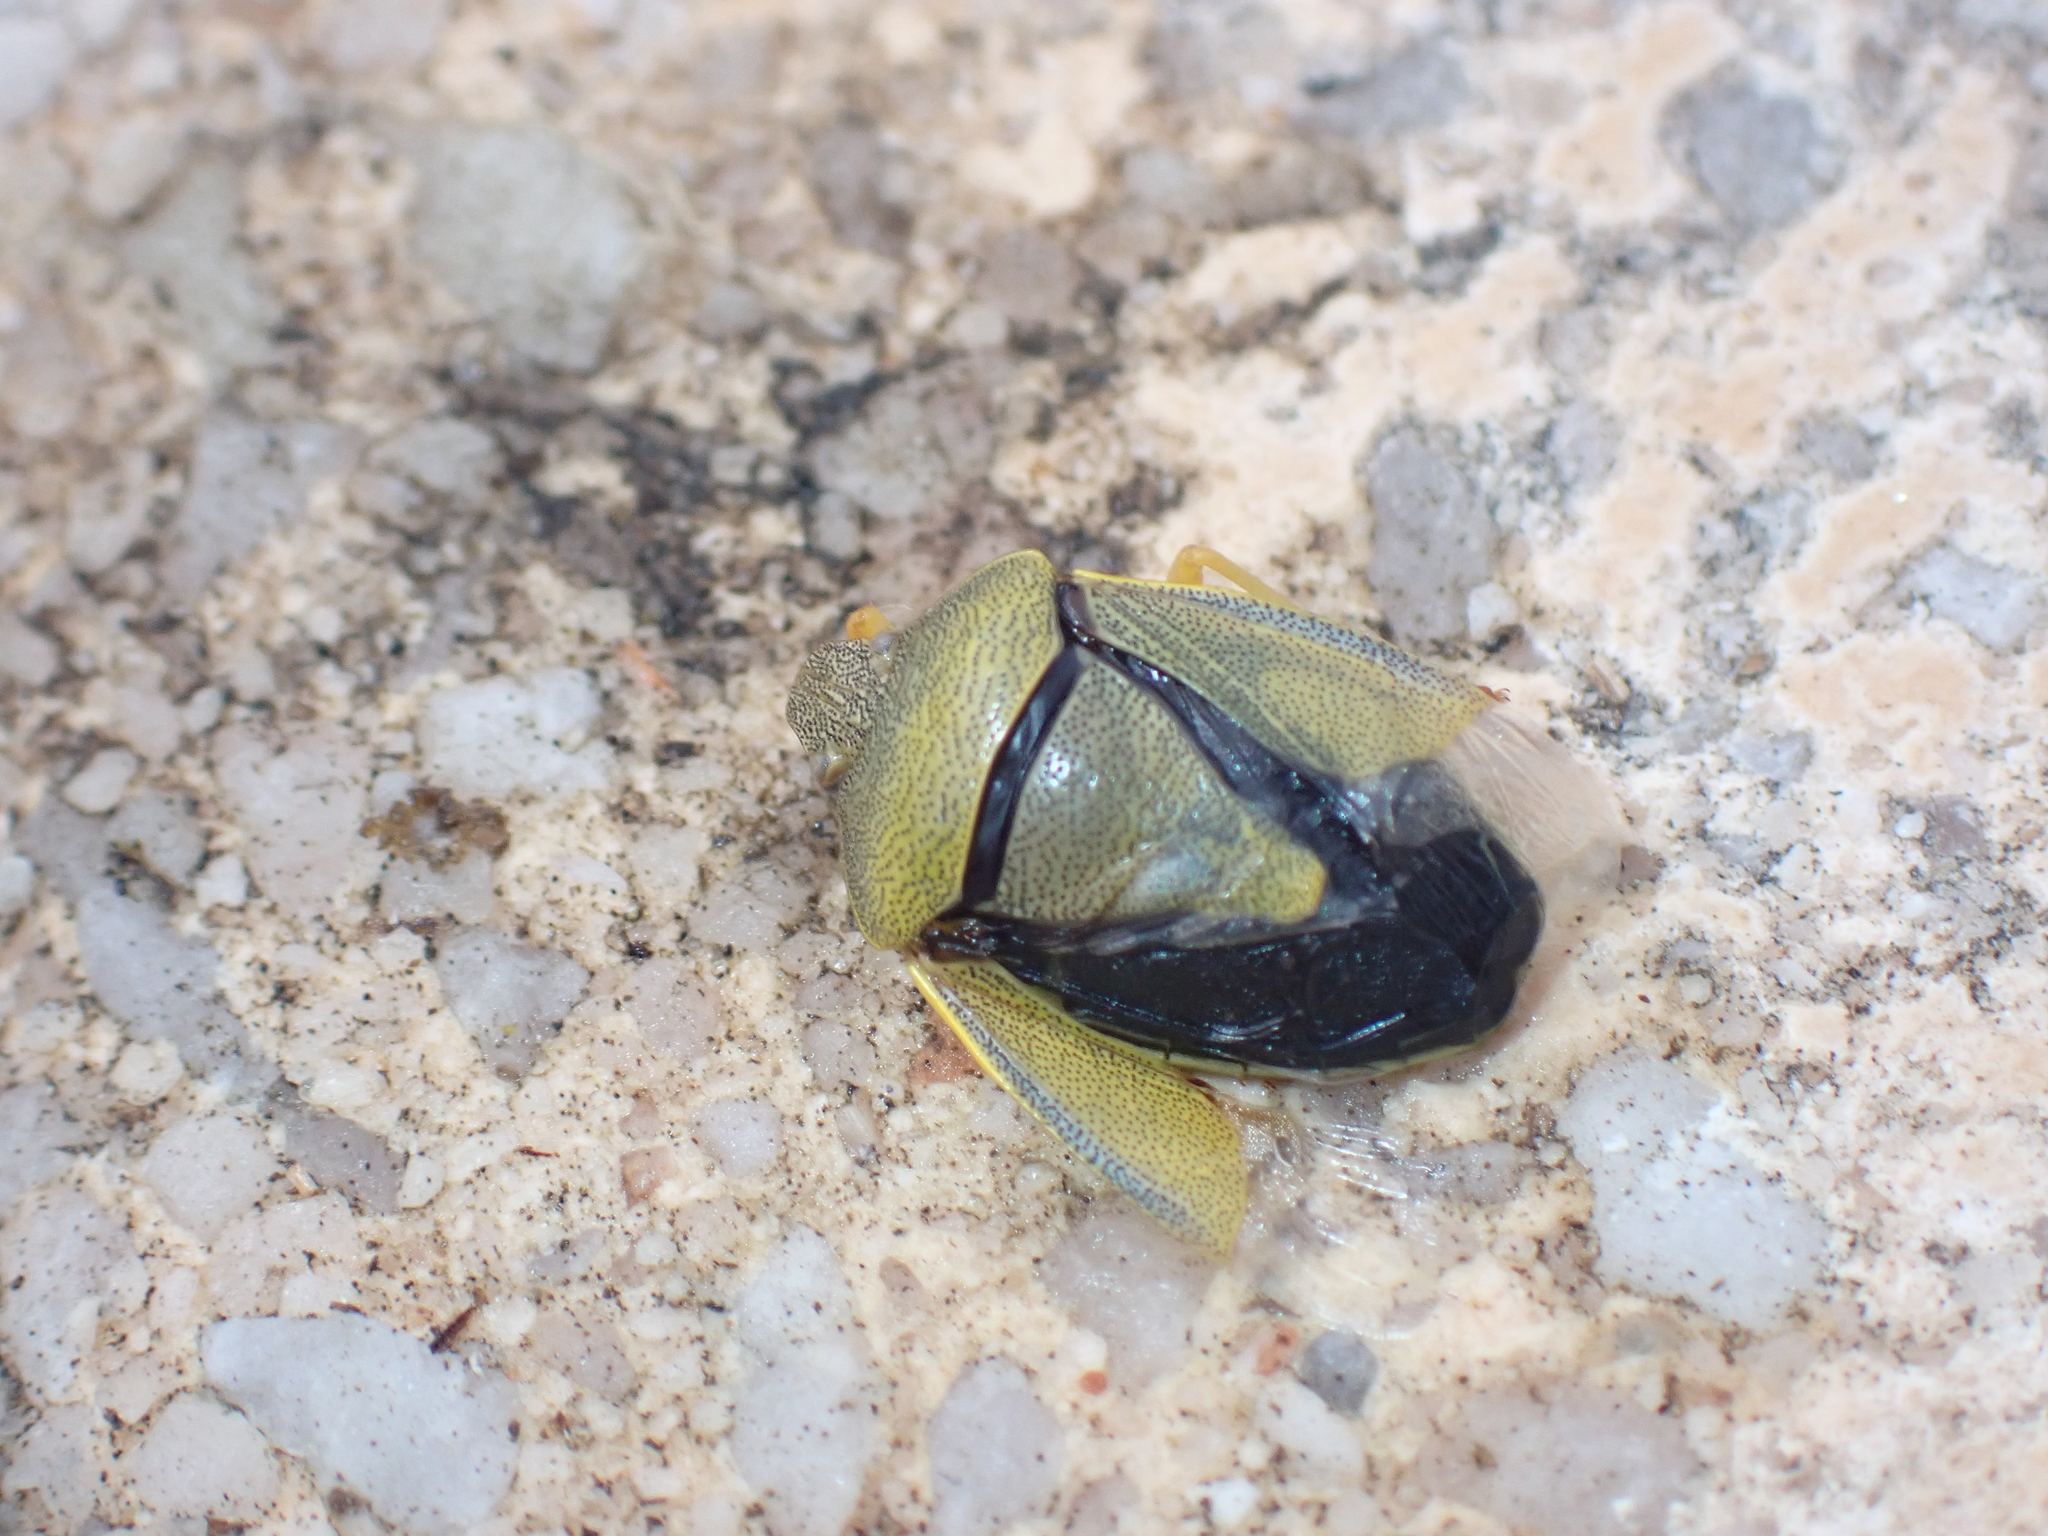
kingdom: Animalia
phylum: Arthropoda
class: Insecta
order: Hemiptera
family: Pentatomidae
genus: Piezodorus
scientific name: Piezodorus lituratus
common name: Stink bug
